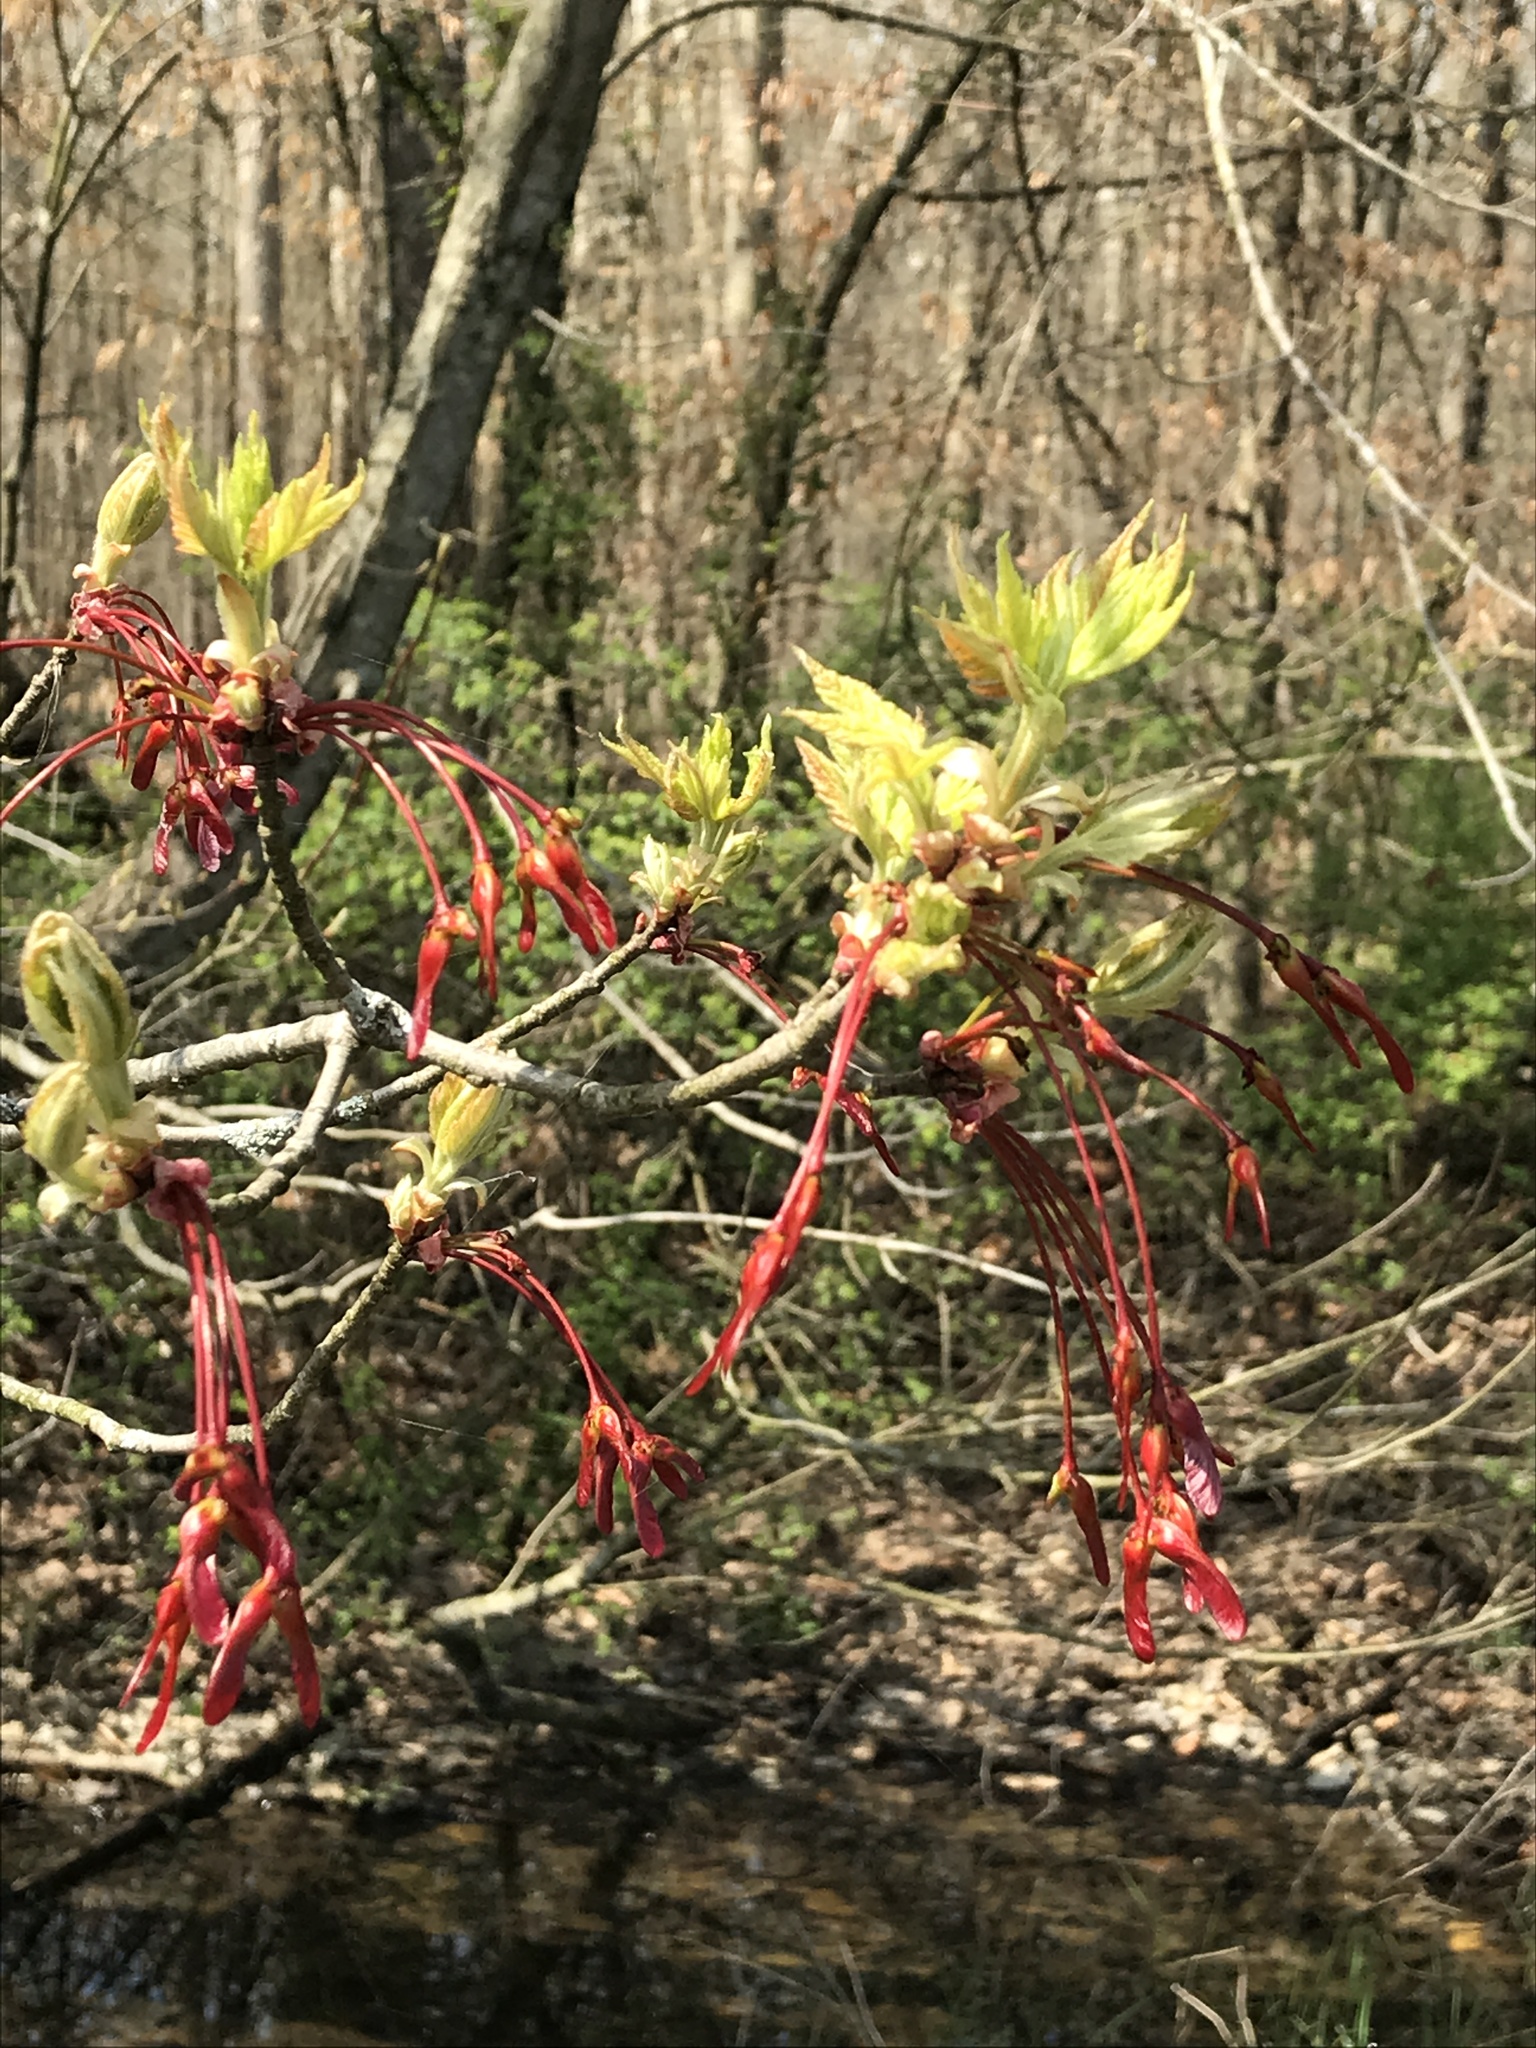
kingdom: Plantae
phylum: Tracheophyta
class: Magnoliopsida
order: Sapindales
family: Sapindaceae
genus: Acer
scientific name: Acer rubrum
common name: Red maple
